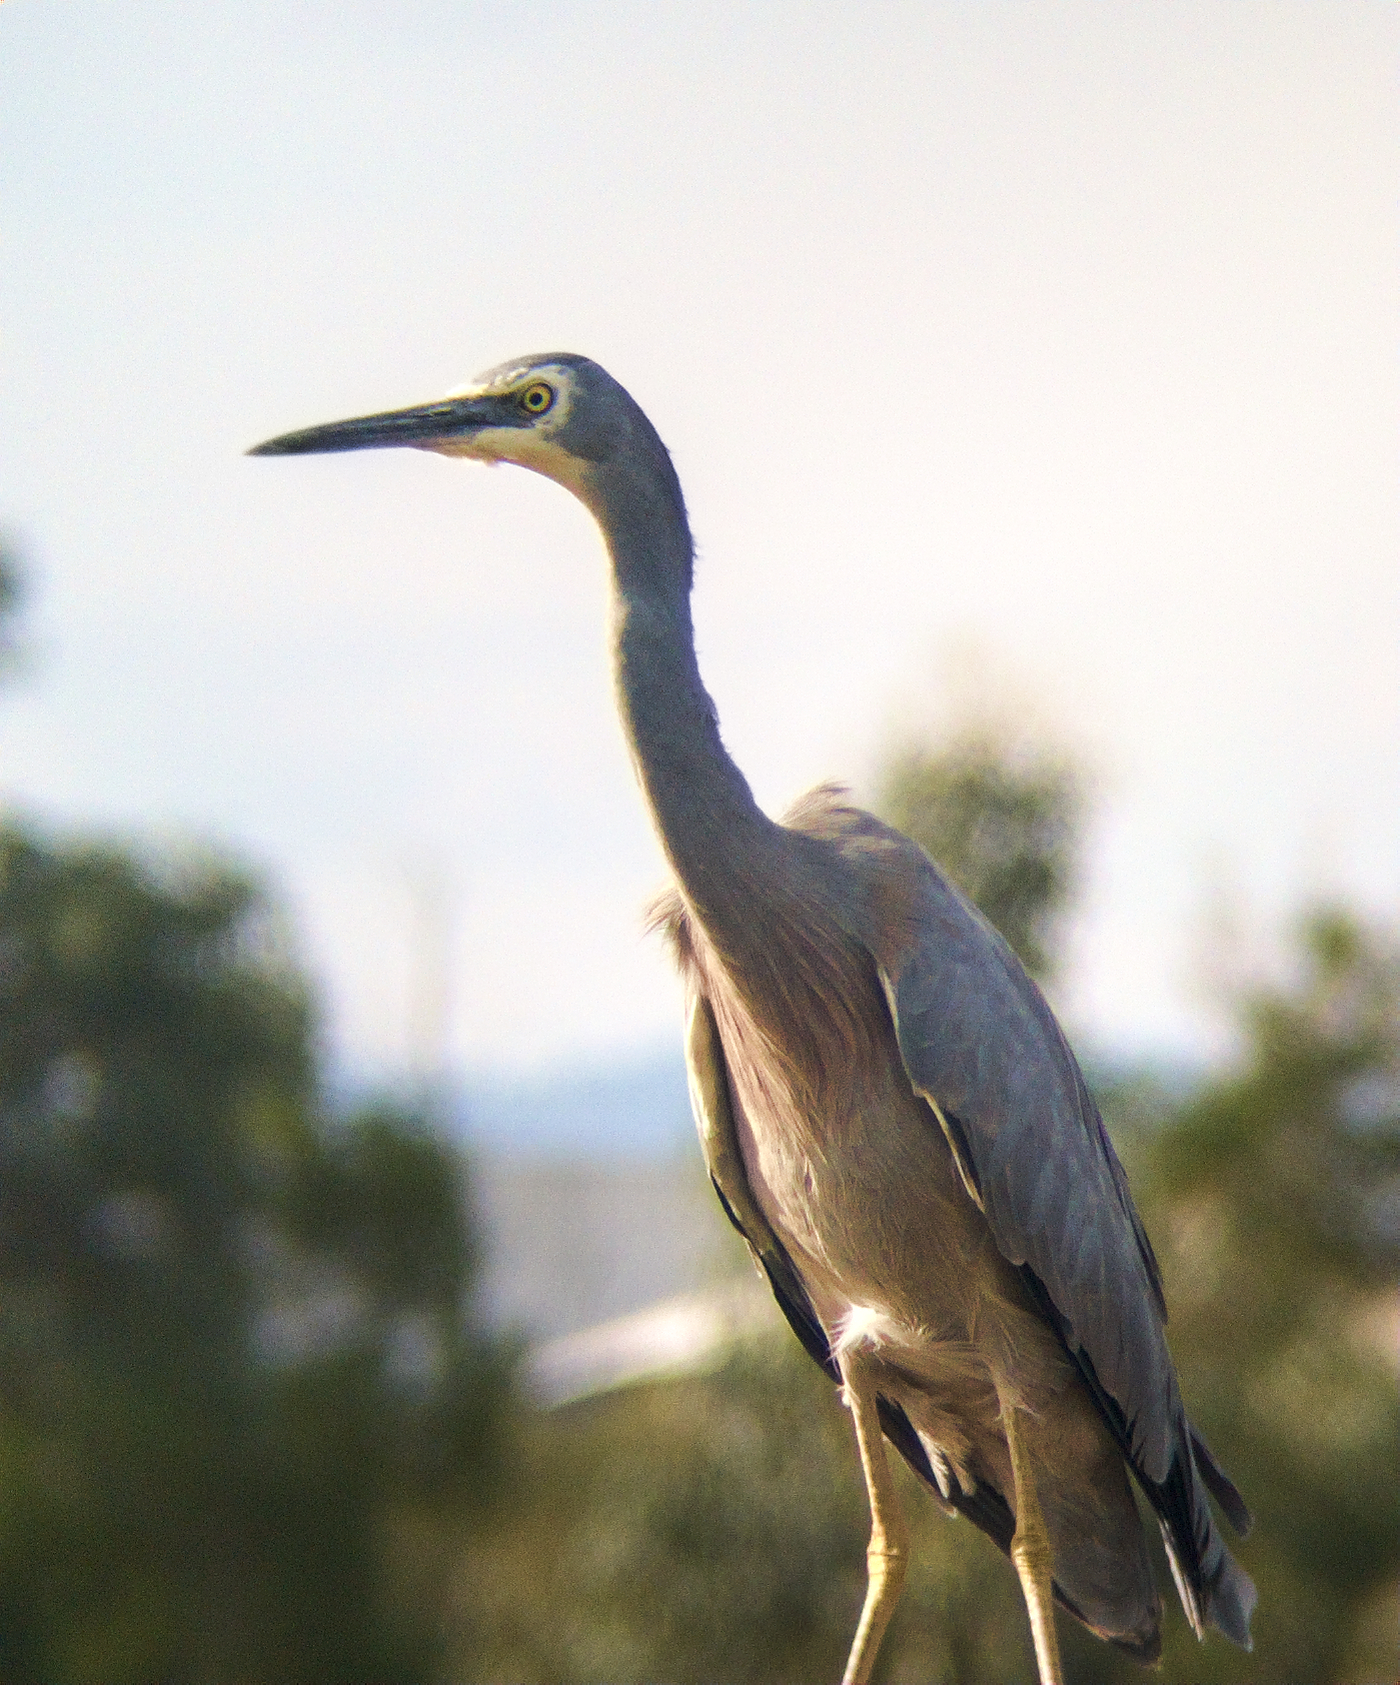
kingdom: Animalia
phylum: Chordata
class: Aves
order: Pelecaniformes
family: Ardeidae
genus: Egretta
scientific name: Egretta novaehollandiae
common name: White-faced heron
